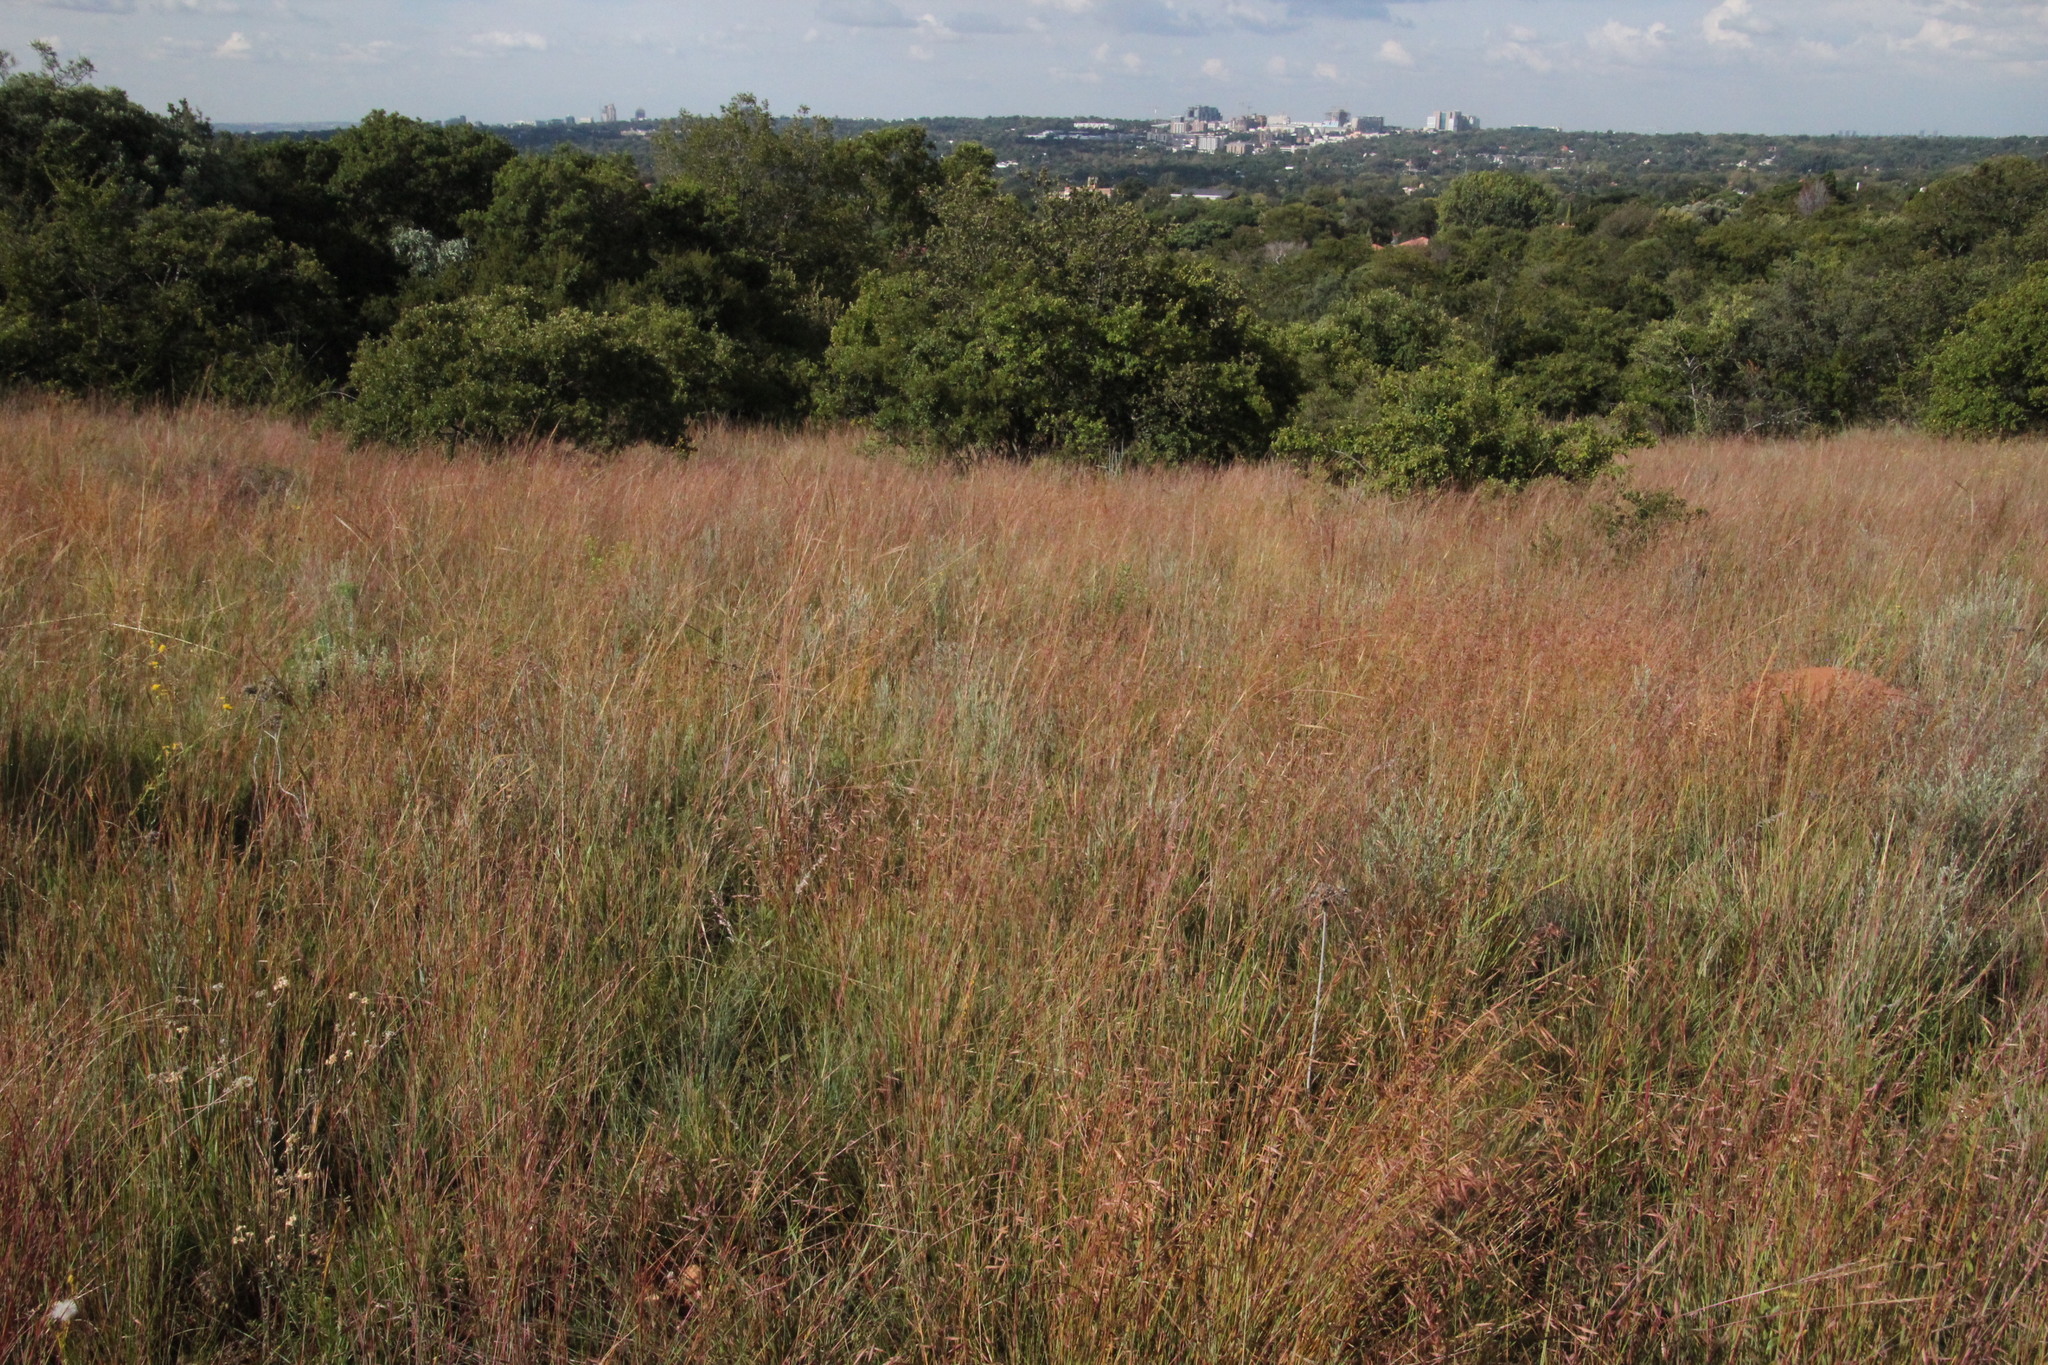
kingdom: Plantae
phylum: Tracheophyta
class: Liliopsida
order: Poales
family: Poaceae
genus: Monocymbium
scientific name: Monocymbium ceresiiforme
